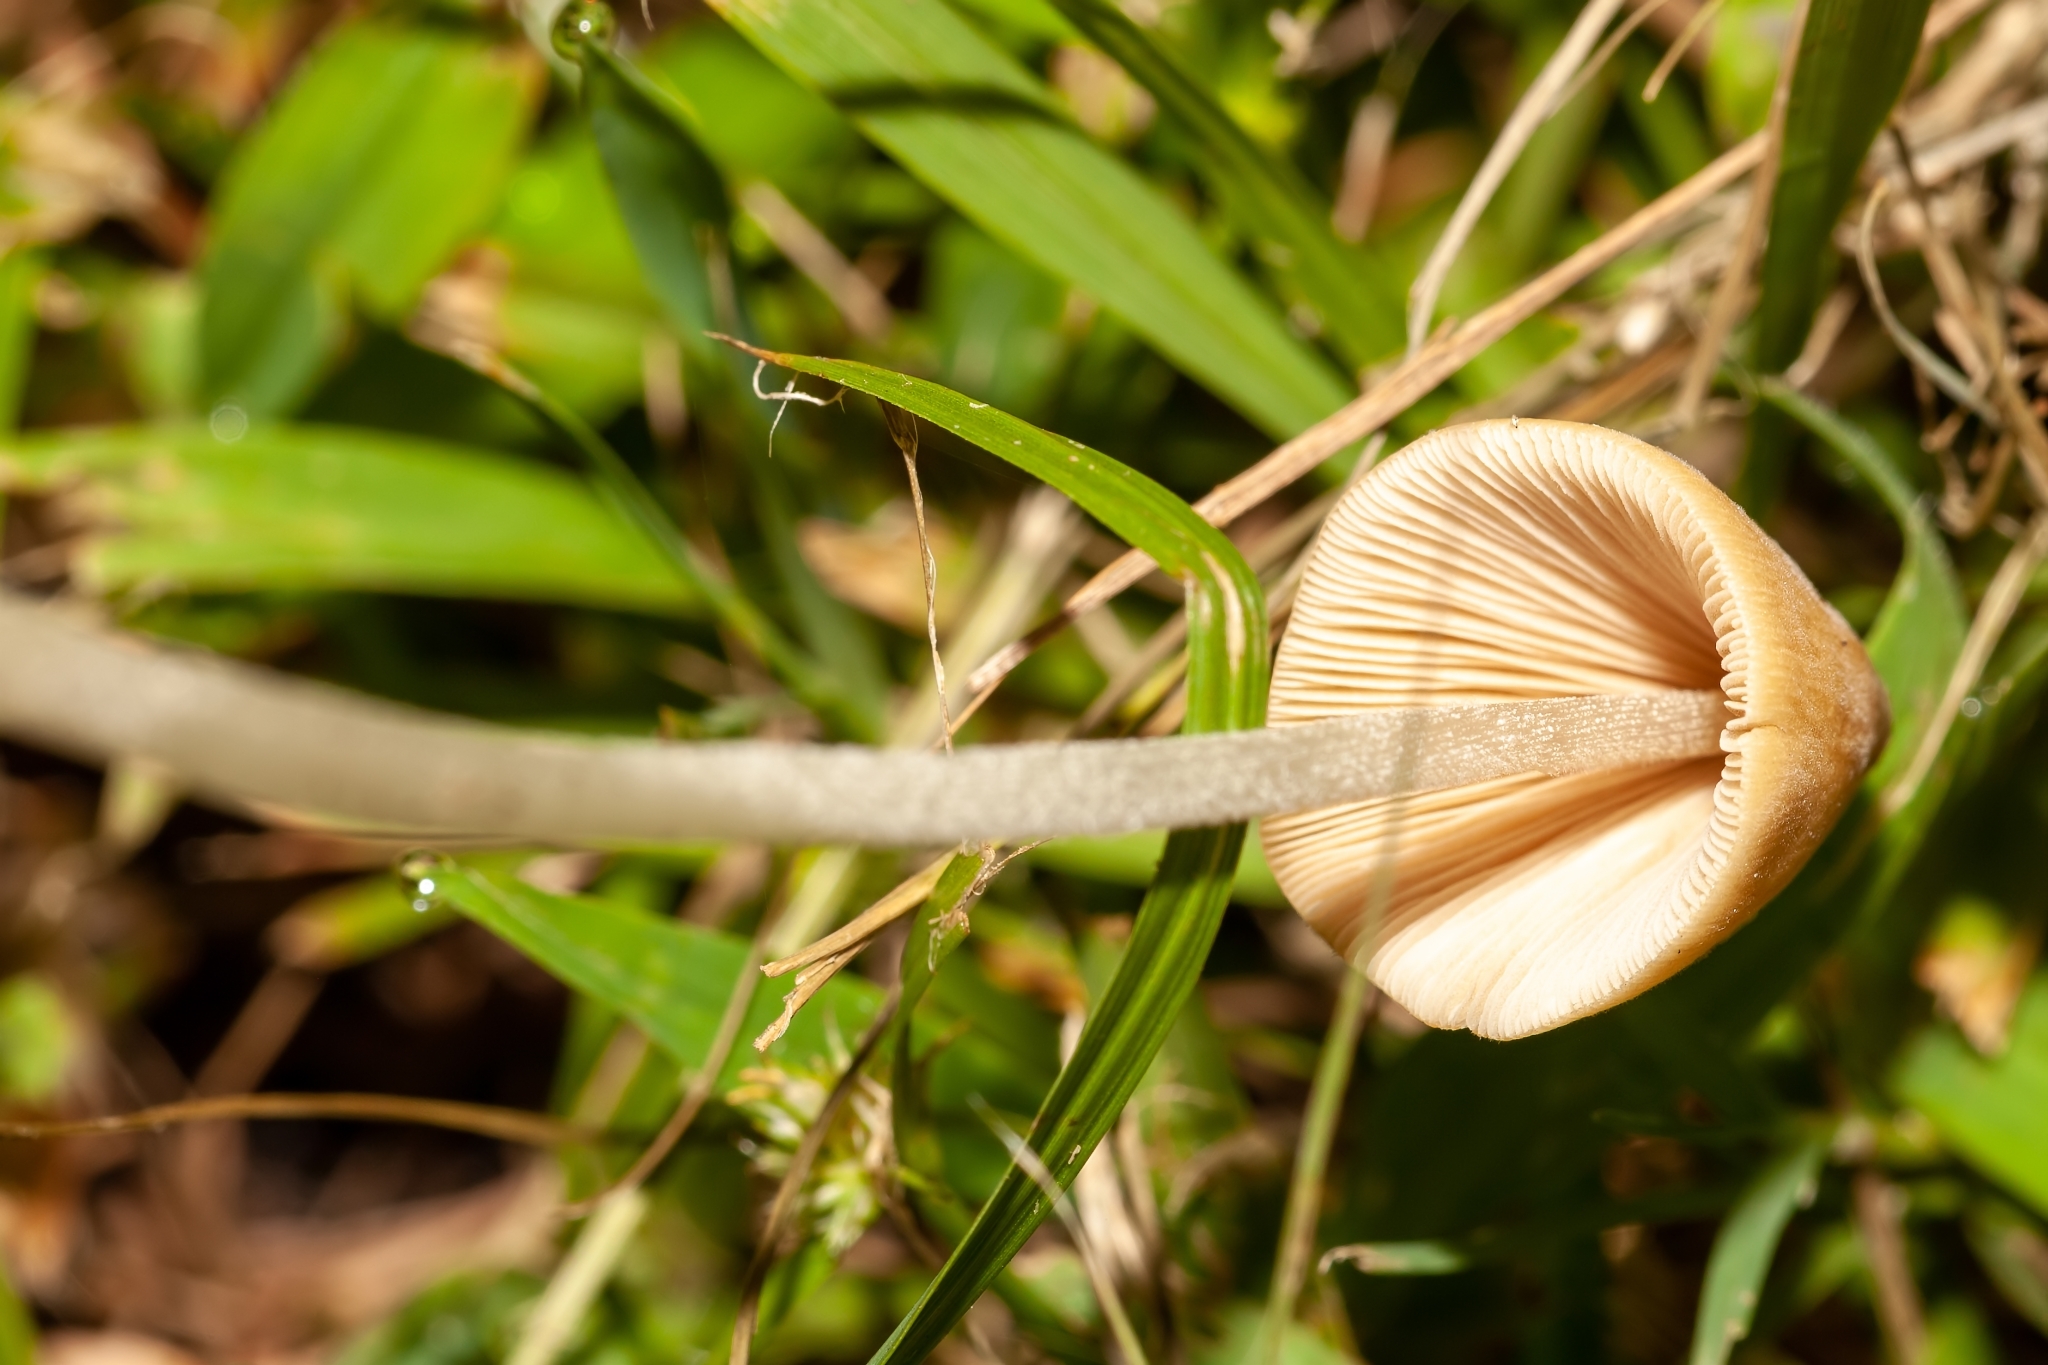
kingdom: Fungi
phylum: Basidiomycota
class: Agaricomycetes
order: Agaricales
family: Bolbitiaceae
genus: Conocybe
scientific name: Conocybe apala
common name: Milky conecap
